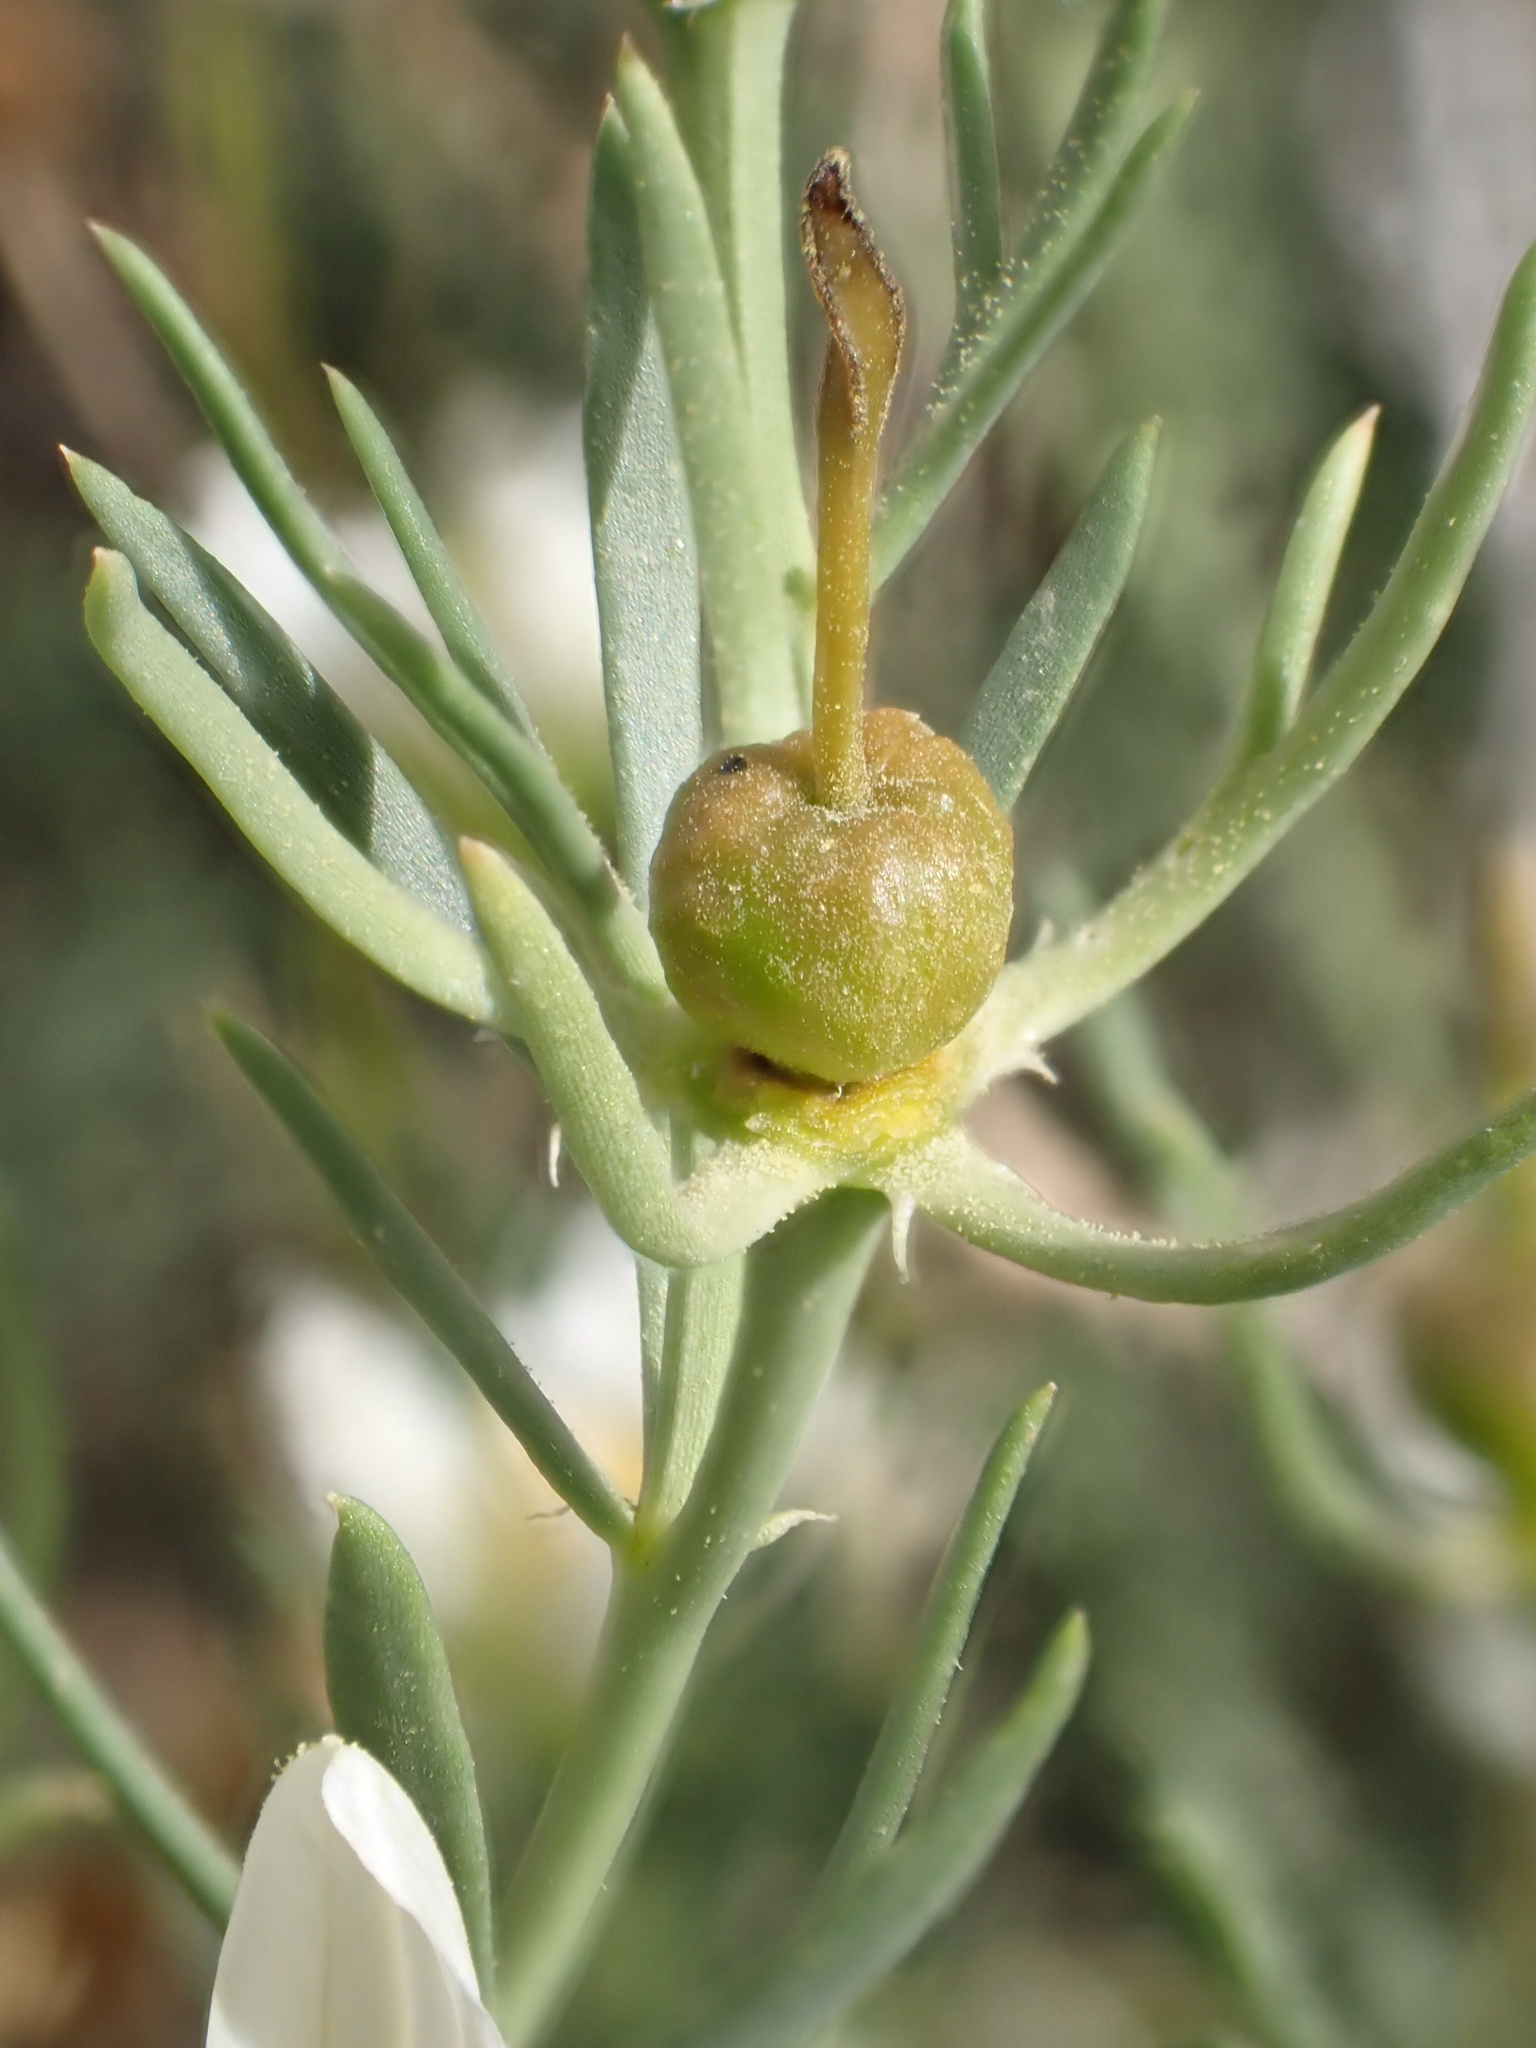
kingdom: Plantae
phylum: Tracheophyta
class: Magnoliopsida
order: Sapindales
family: Tetradiclidaceae
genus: Peganum
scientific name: Peganum harmala
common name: Harmal peganum
